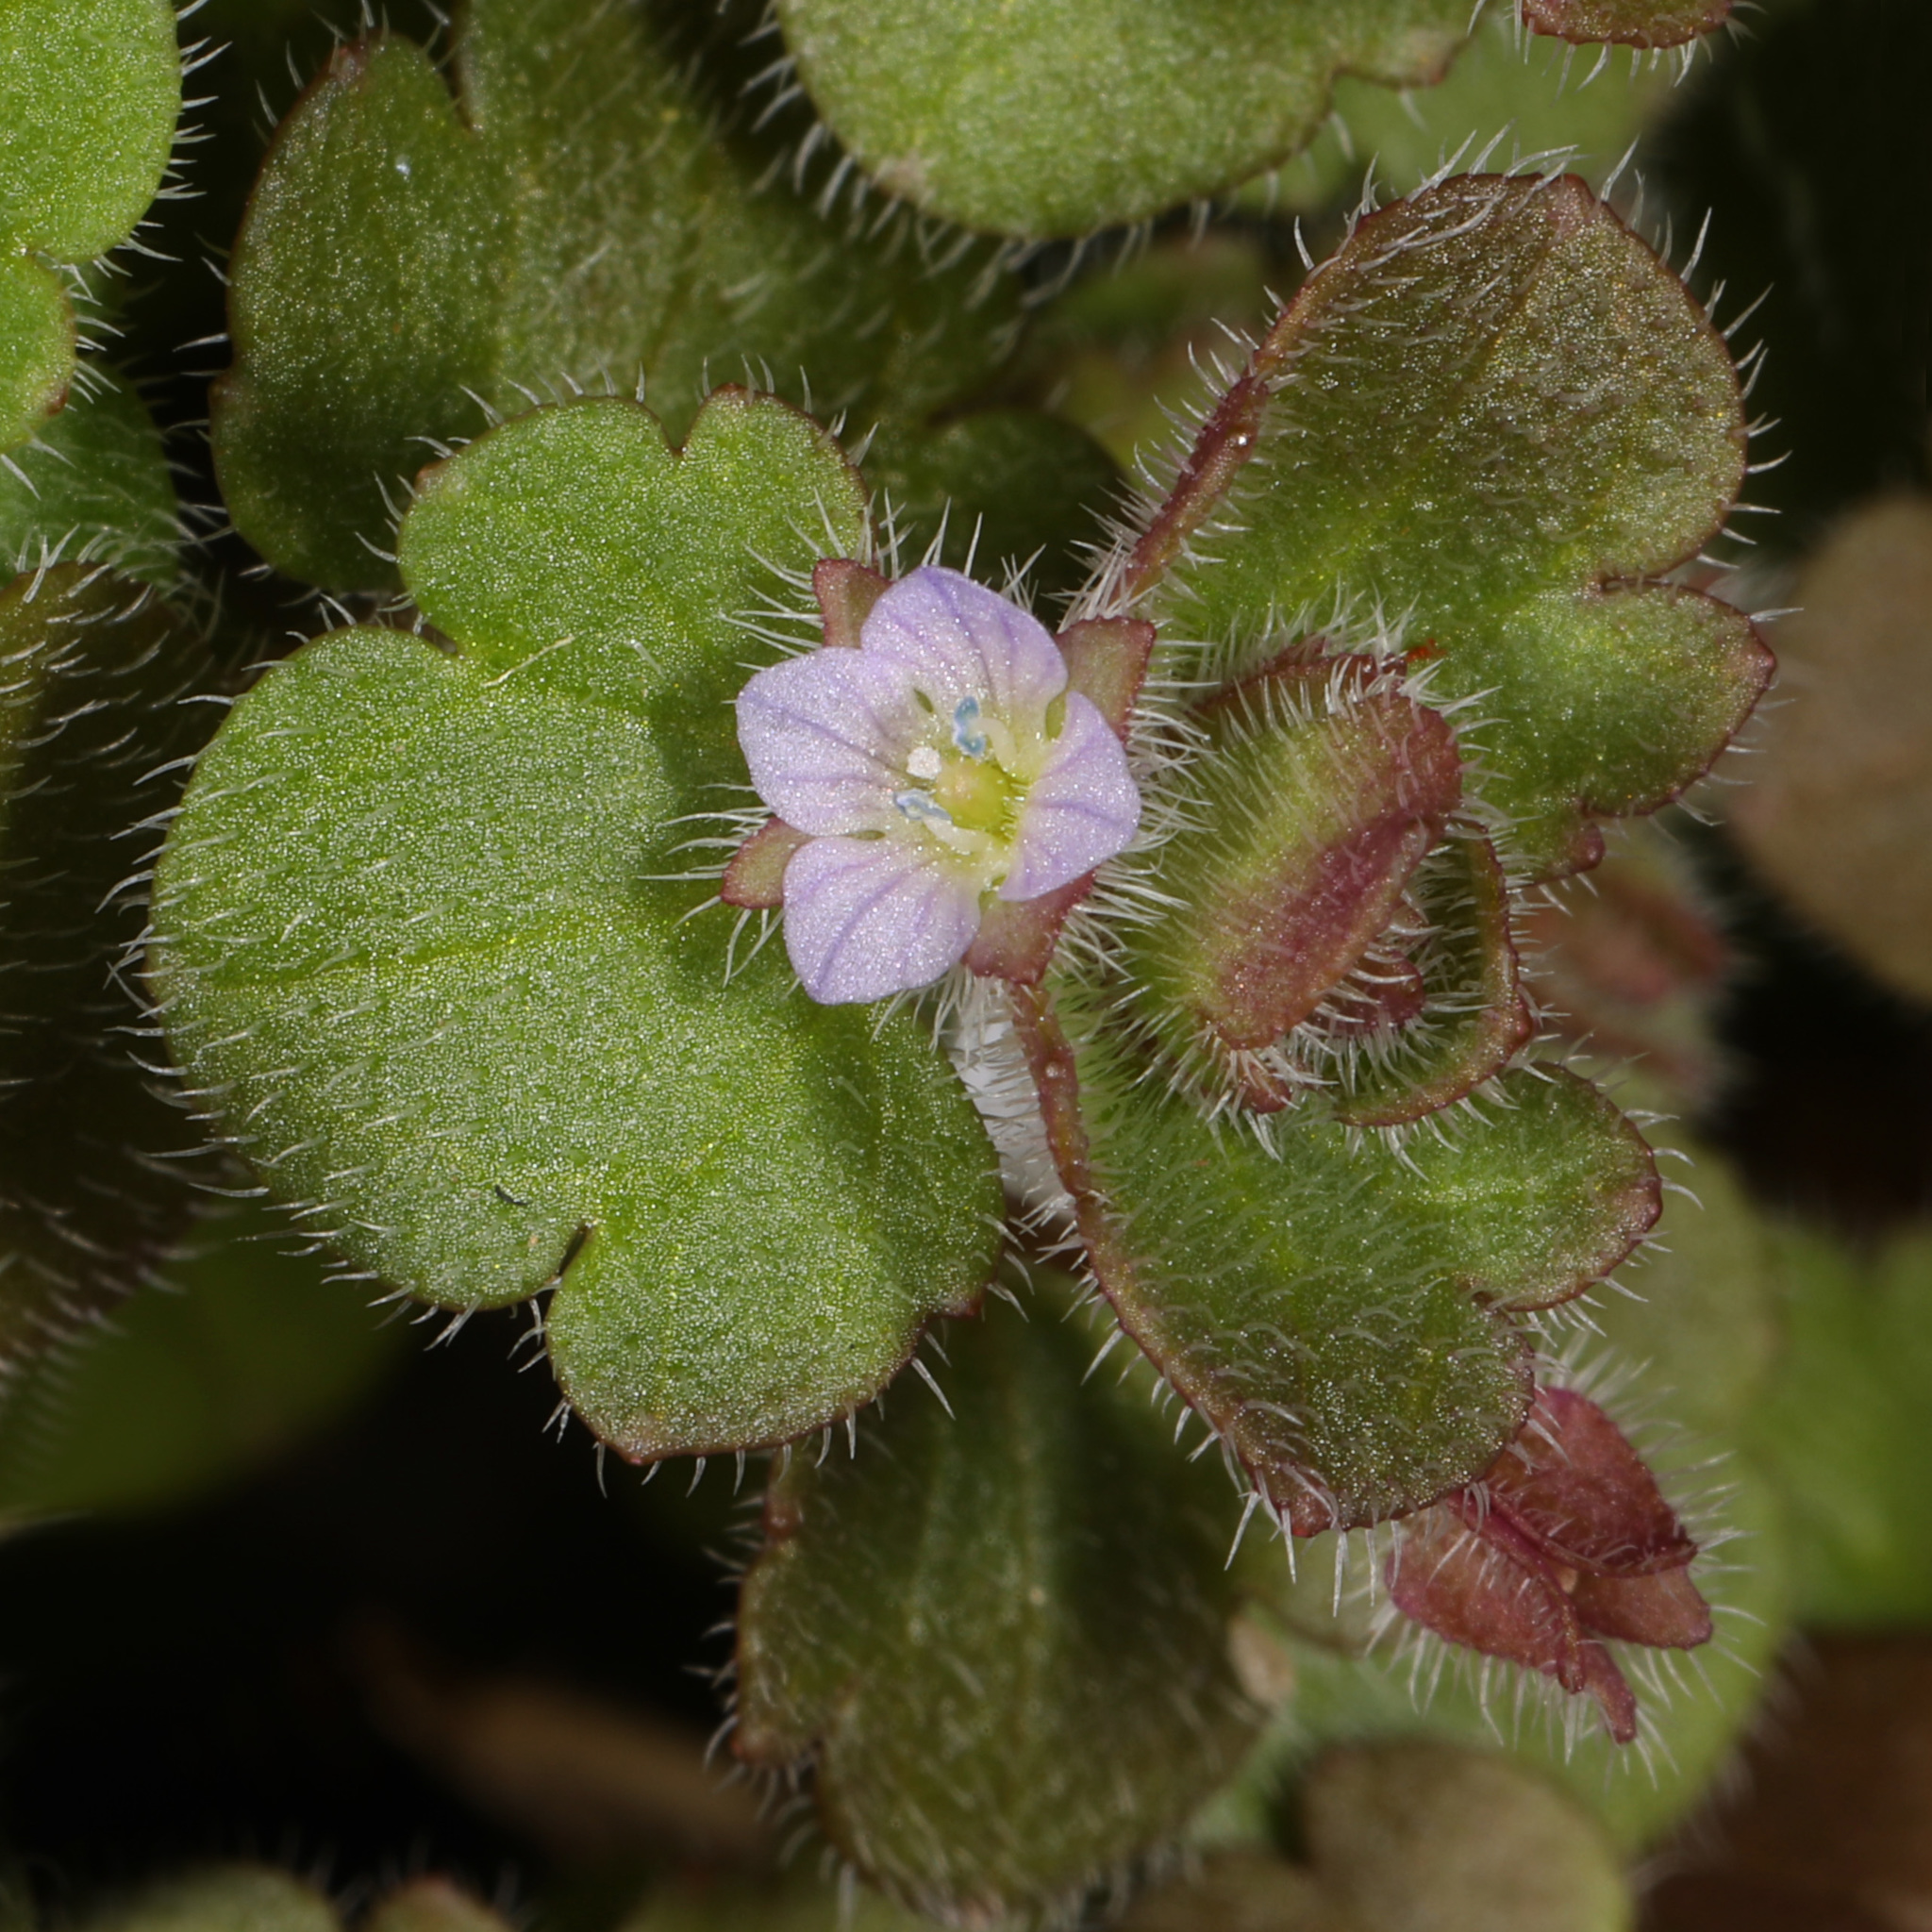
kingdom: Plantae
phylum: Tracheophyta
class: Magnoliopsida
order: Lamiales
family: Plantaginaceae
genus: Veronica
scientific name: Veronica hederifolia
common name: Ivy-leaved speedwell
